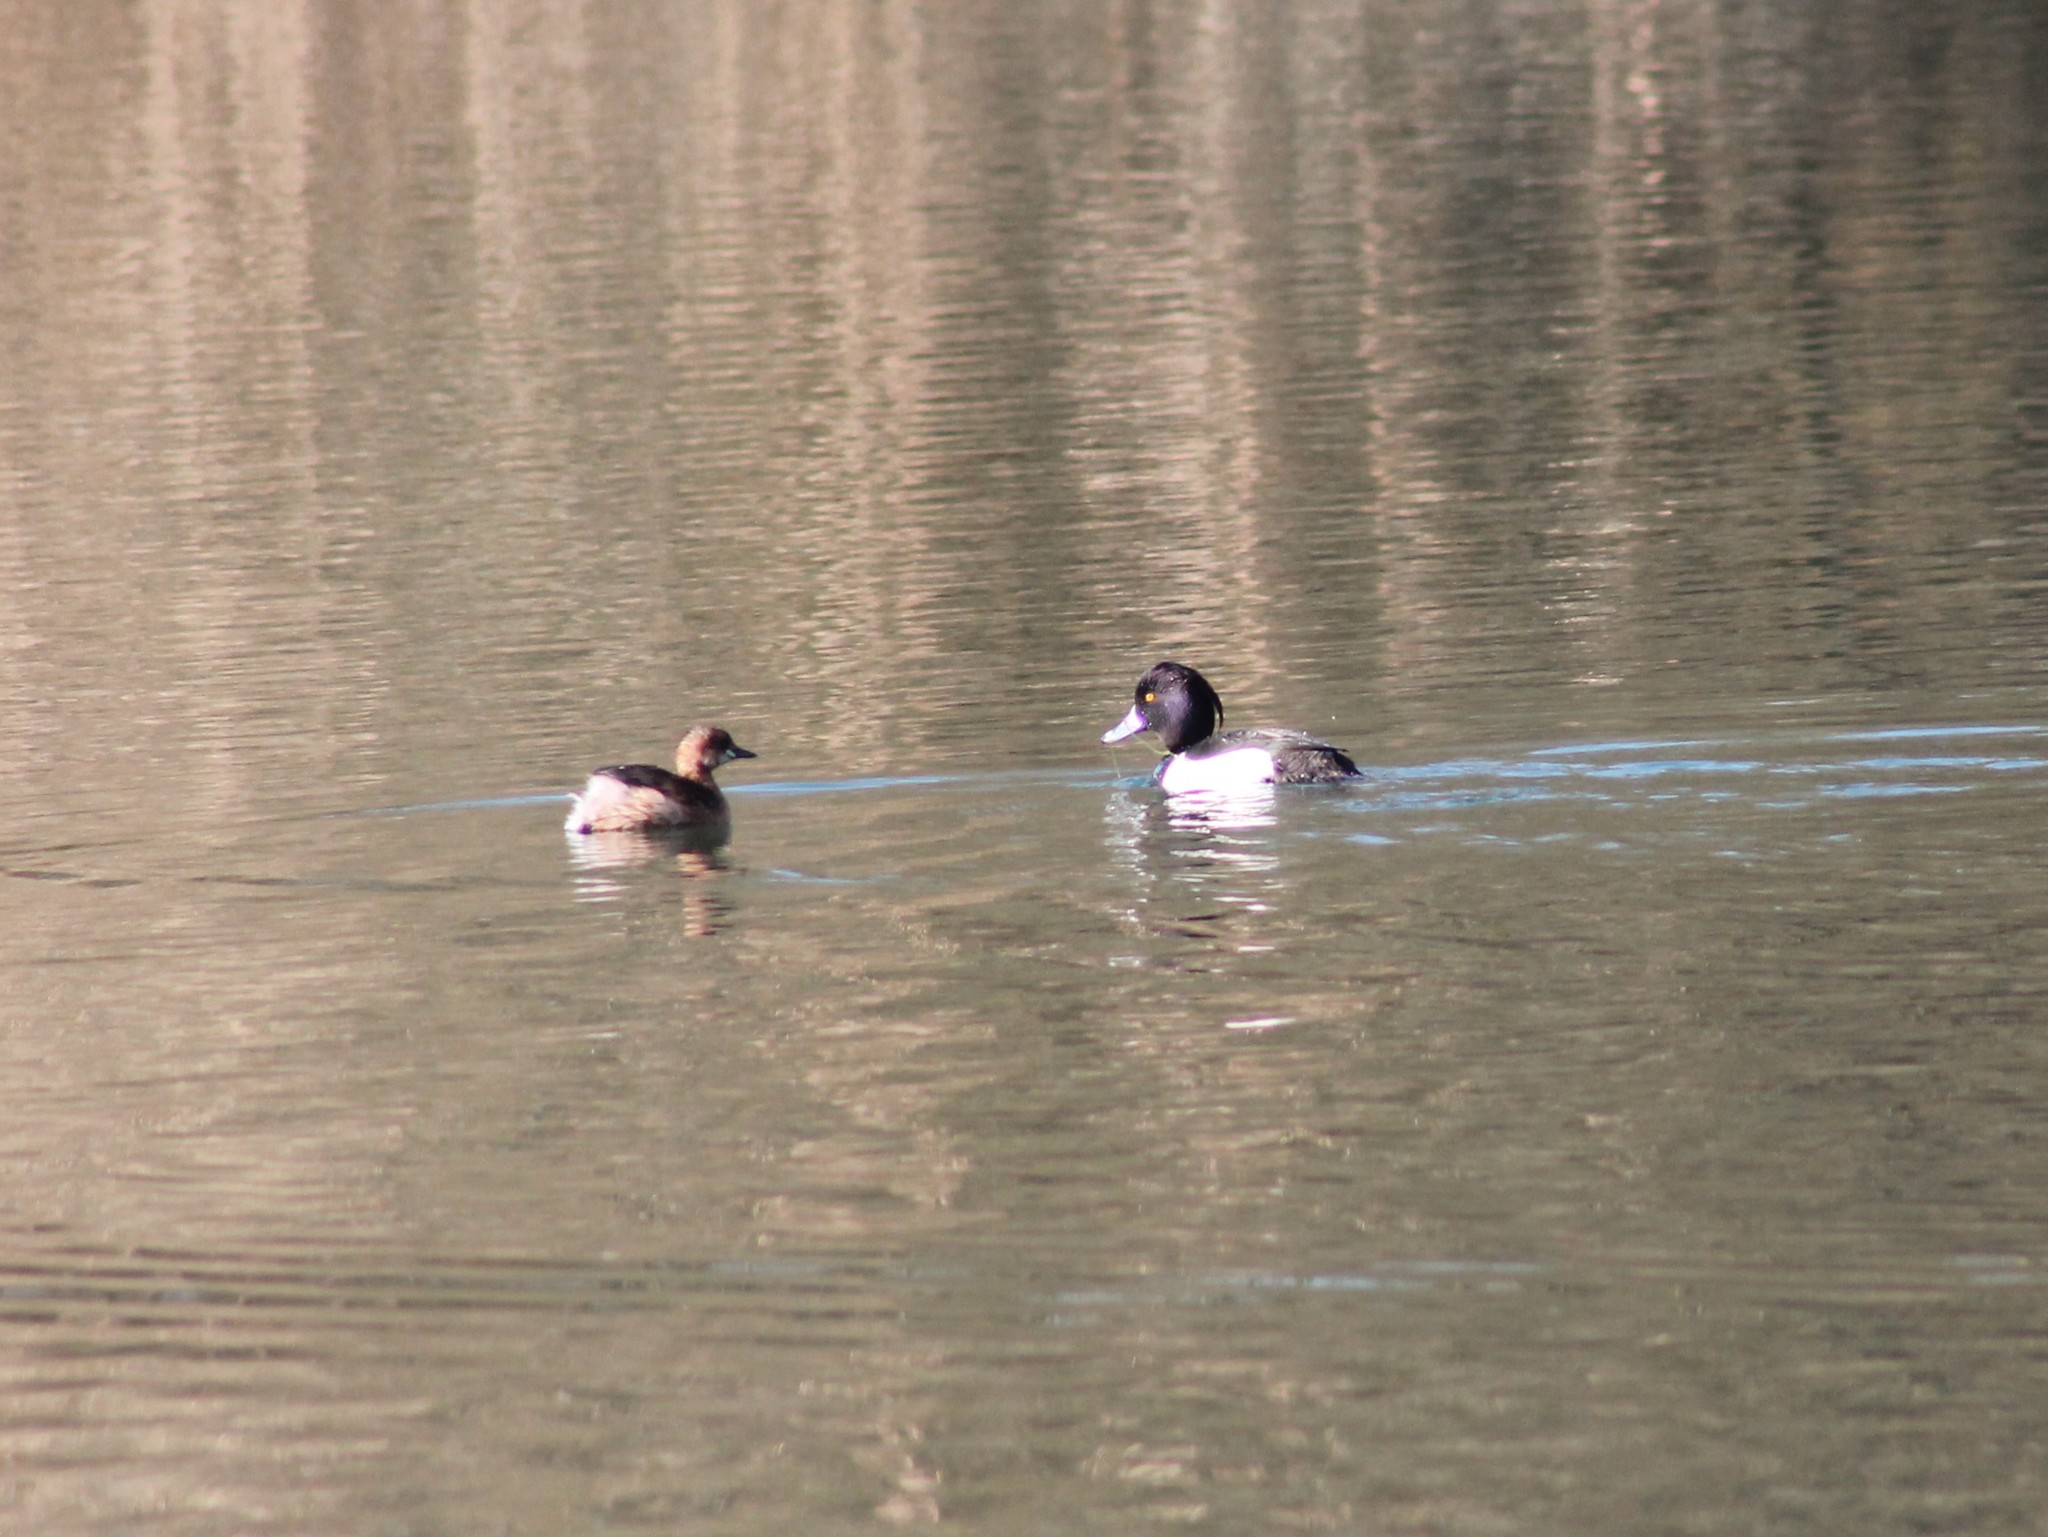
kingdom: Animalia
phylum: Chordata
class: Aves
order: Anseriformes
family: Anatidae
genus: Aythya
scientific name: Aythya fuligula
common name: Tufted duck
